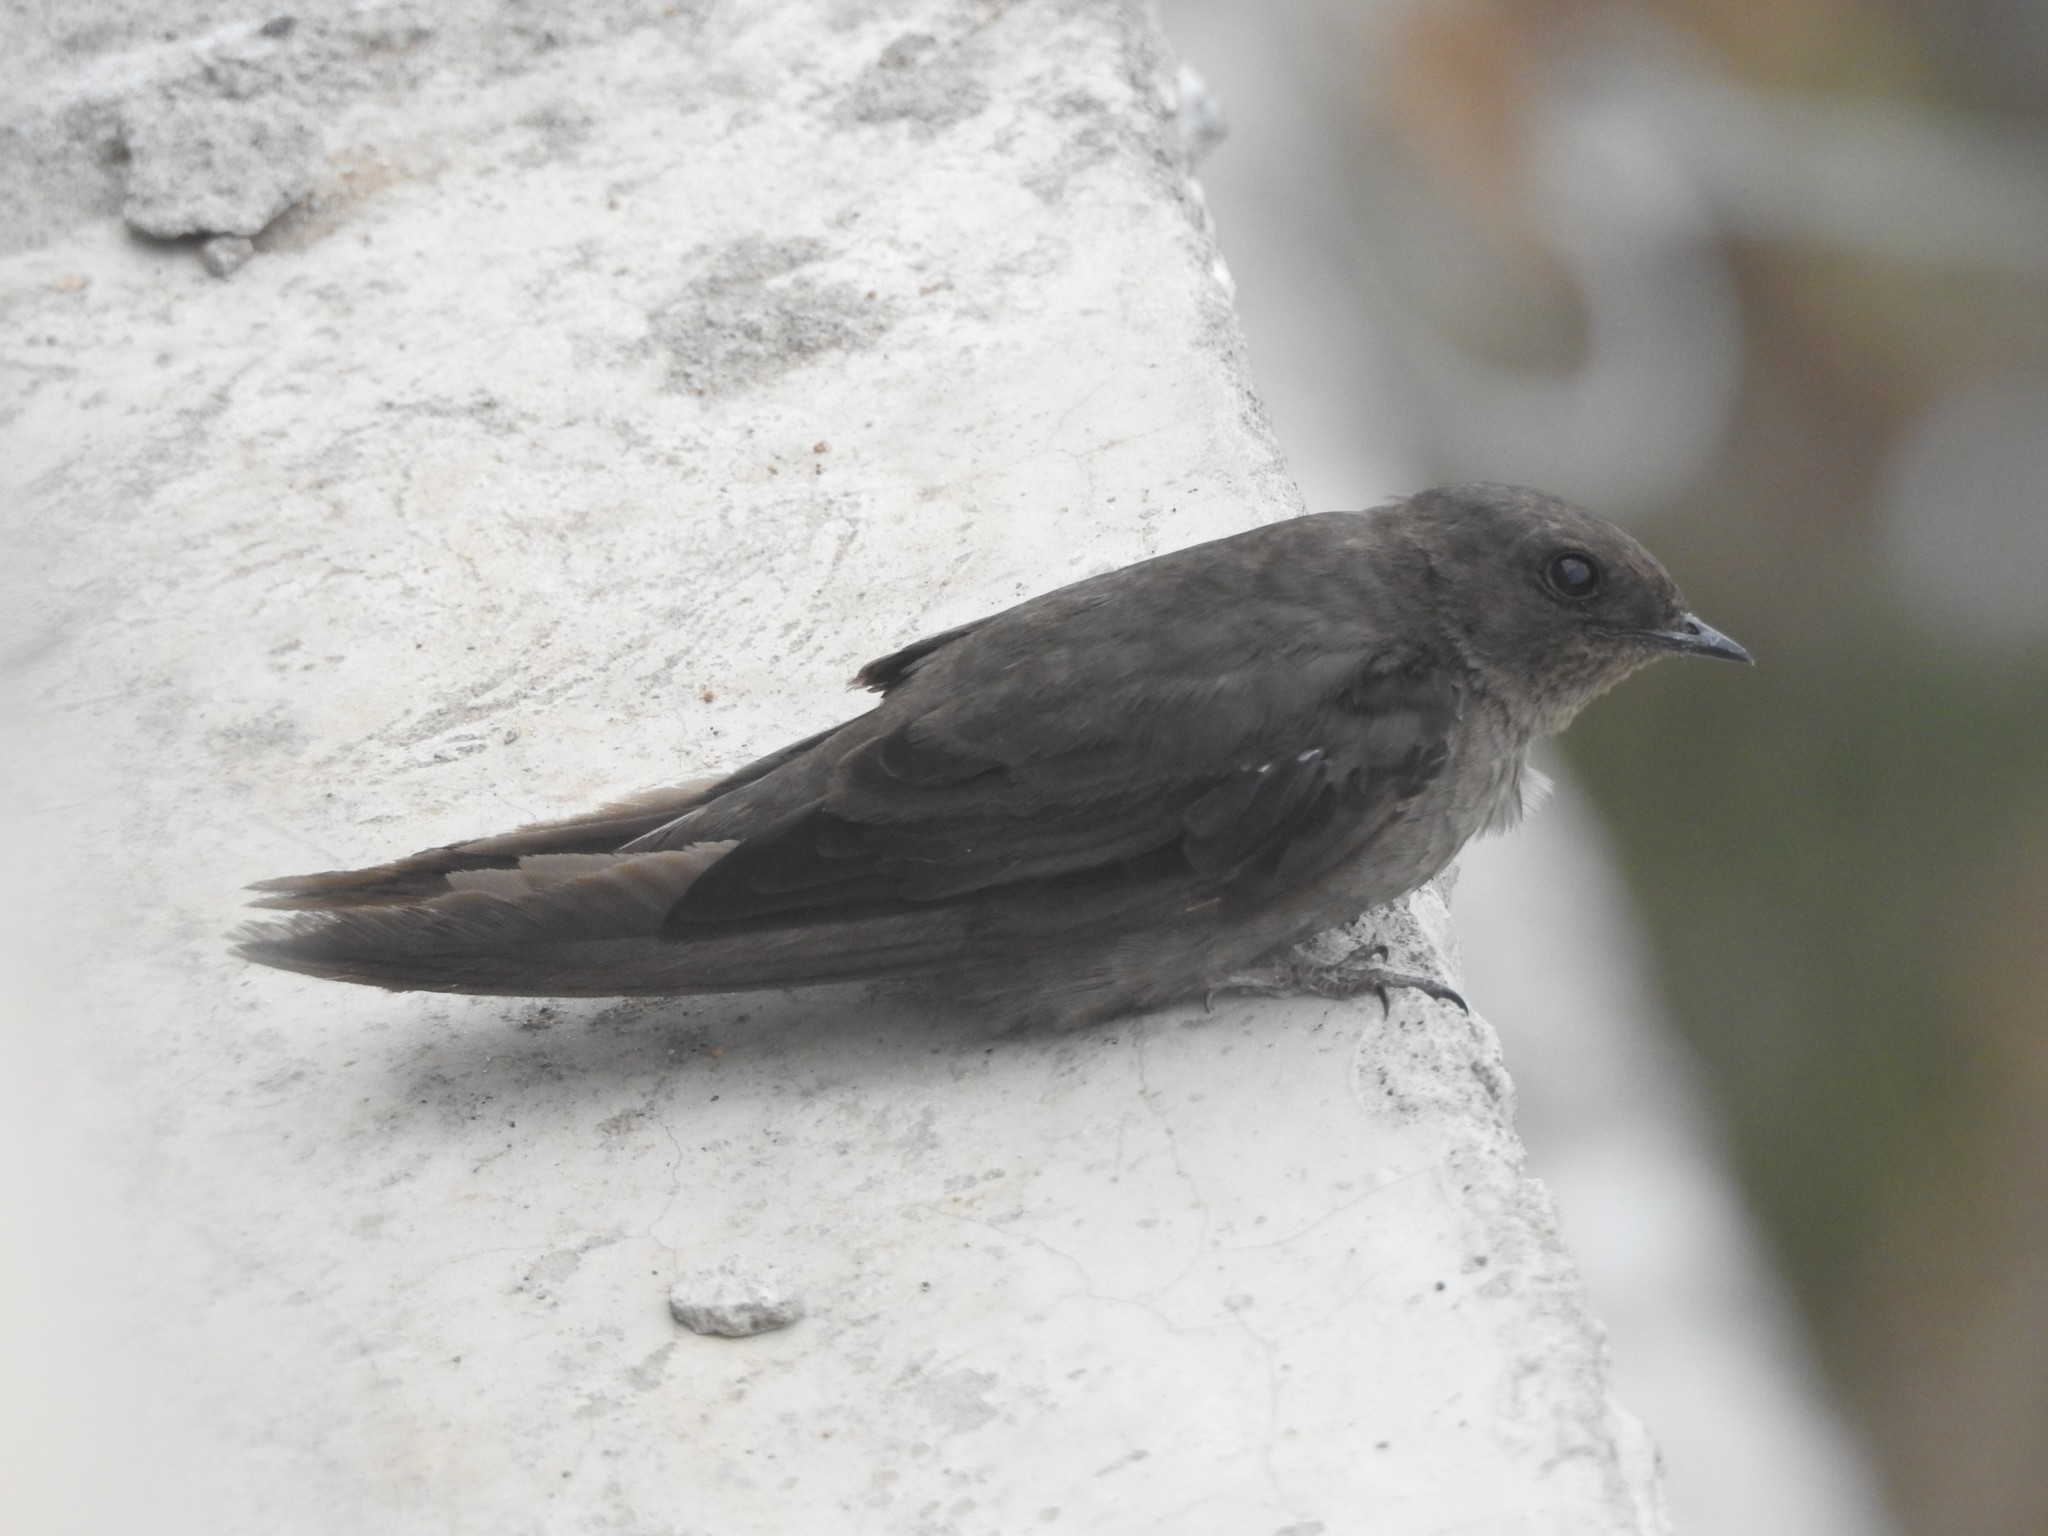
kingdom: Animalia
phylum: Chordata
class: Aves
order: Passeriformes
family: Hirundinidae
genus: Ptyonoprogne
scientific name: Ptyonoprogne concolor
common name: Dusky crag-martin
